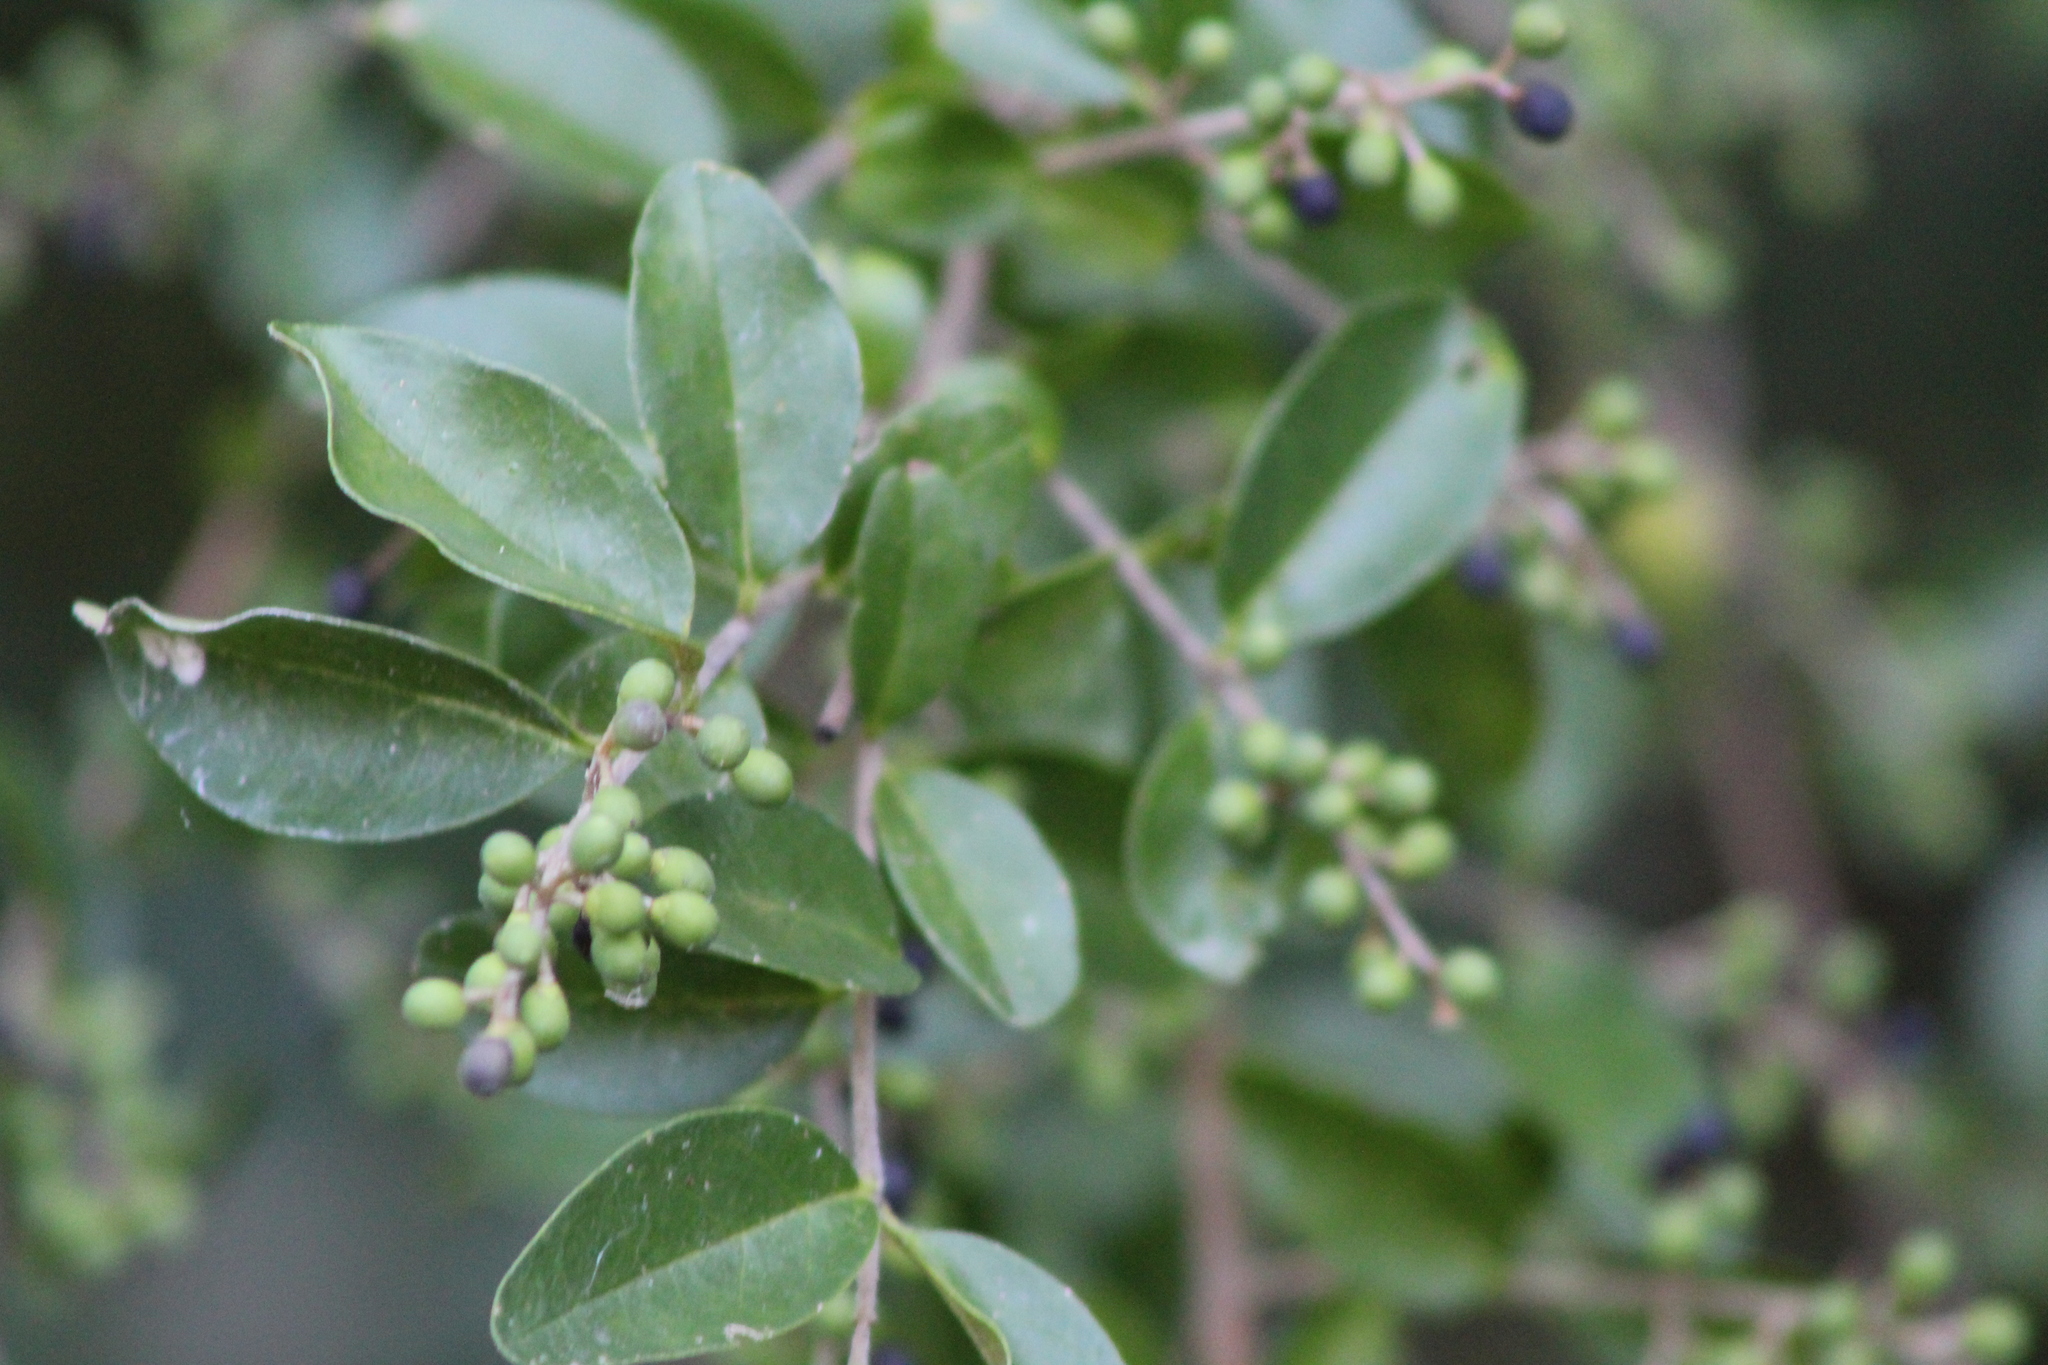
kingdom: Plantae
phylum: Tracheophyta
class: Magnoliopsida
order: Lamiales
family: Oleaceae
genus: Ligustrum
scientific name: Ligustrum sinense
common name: Chinese privet
